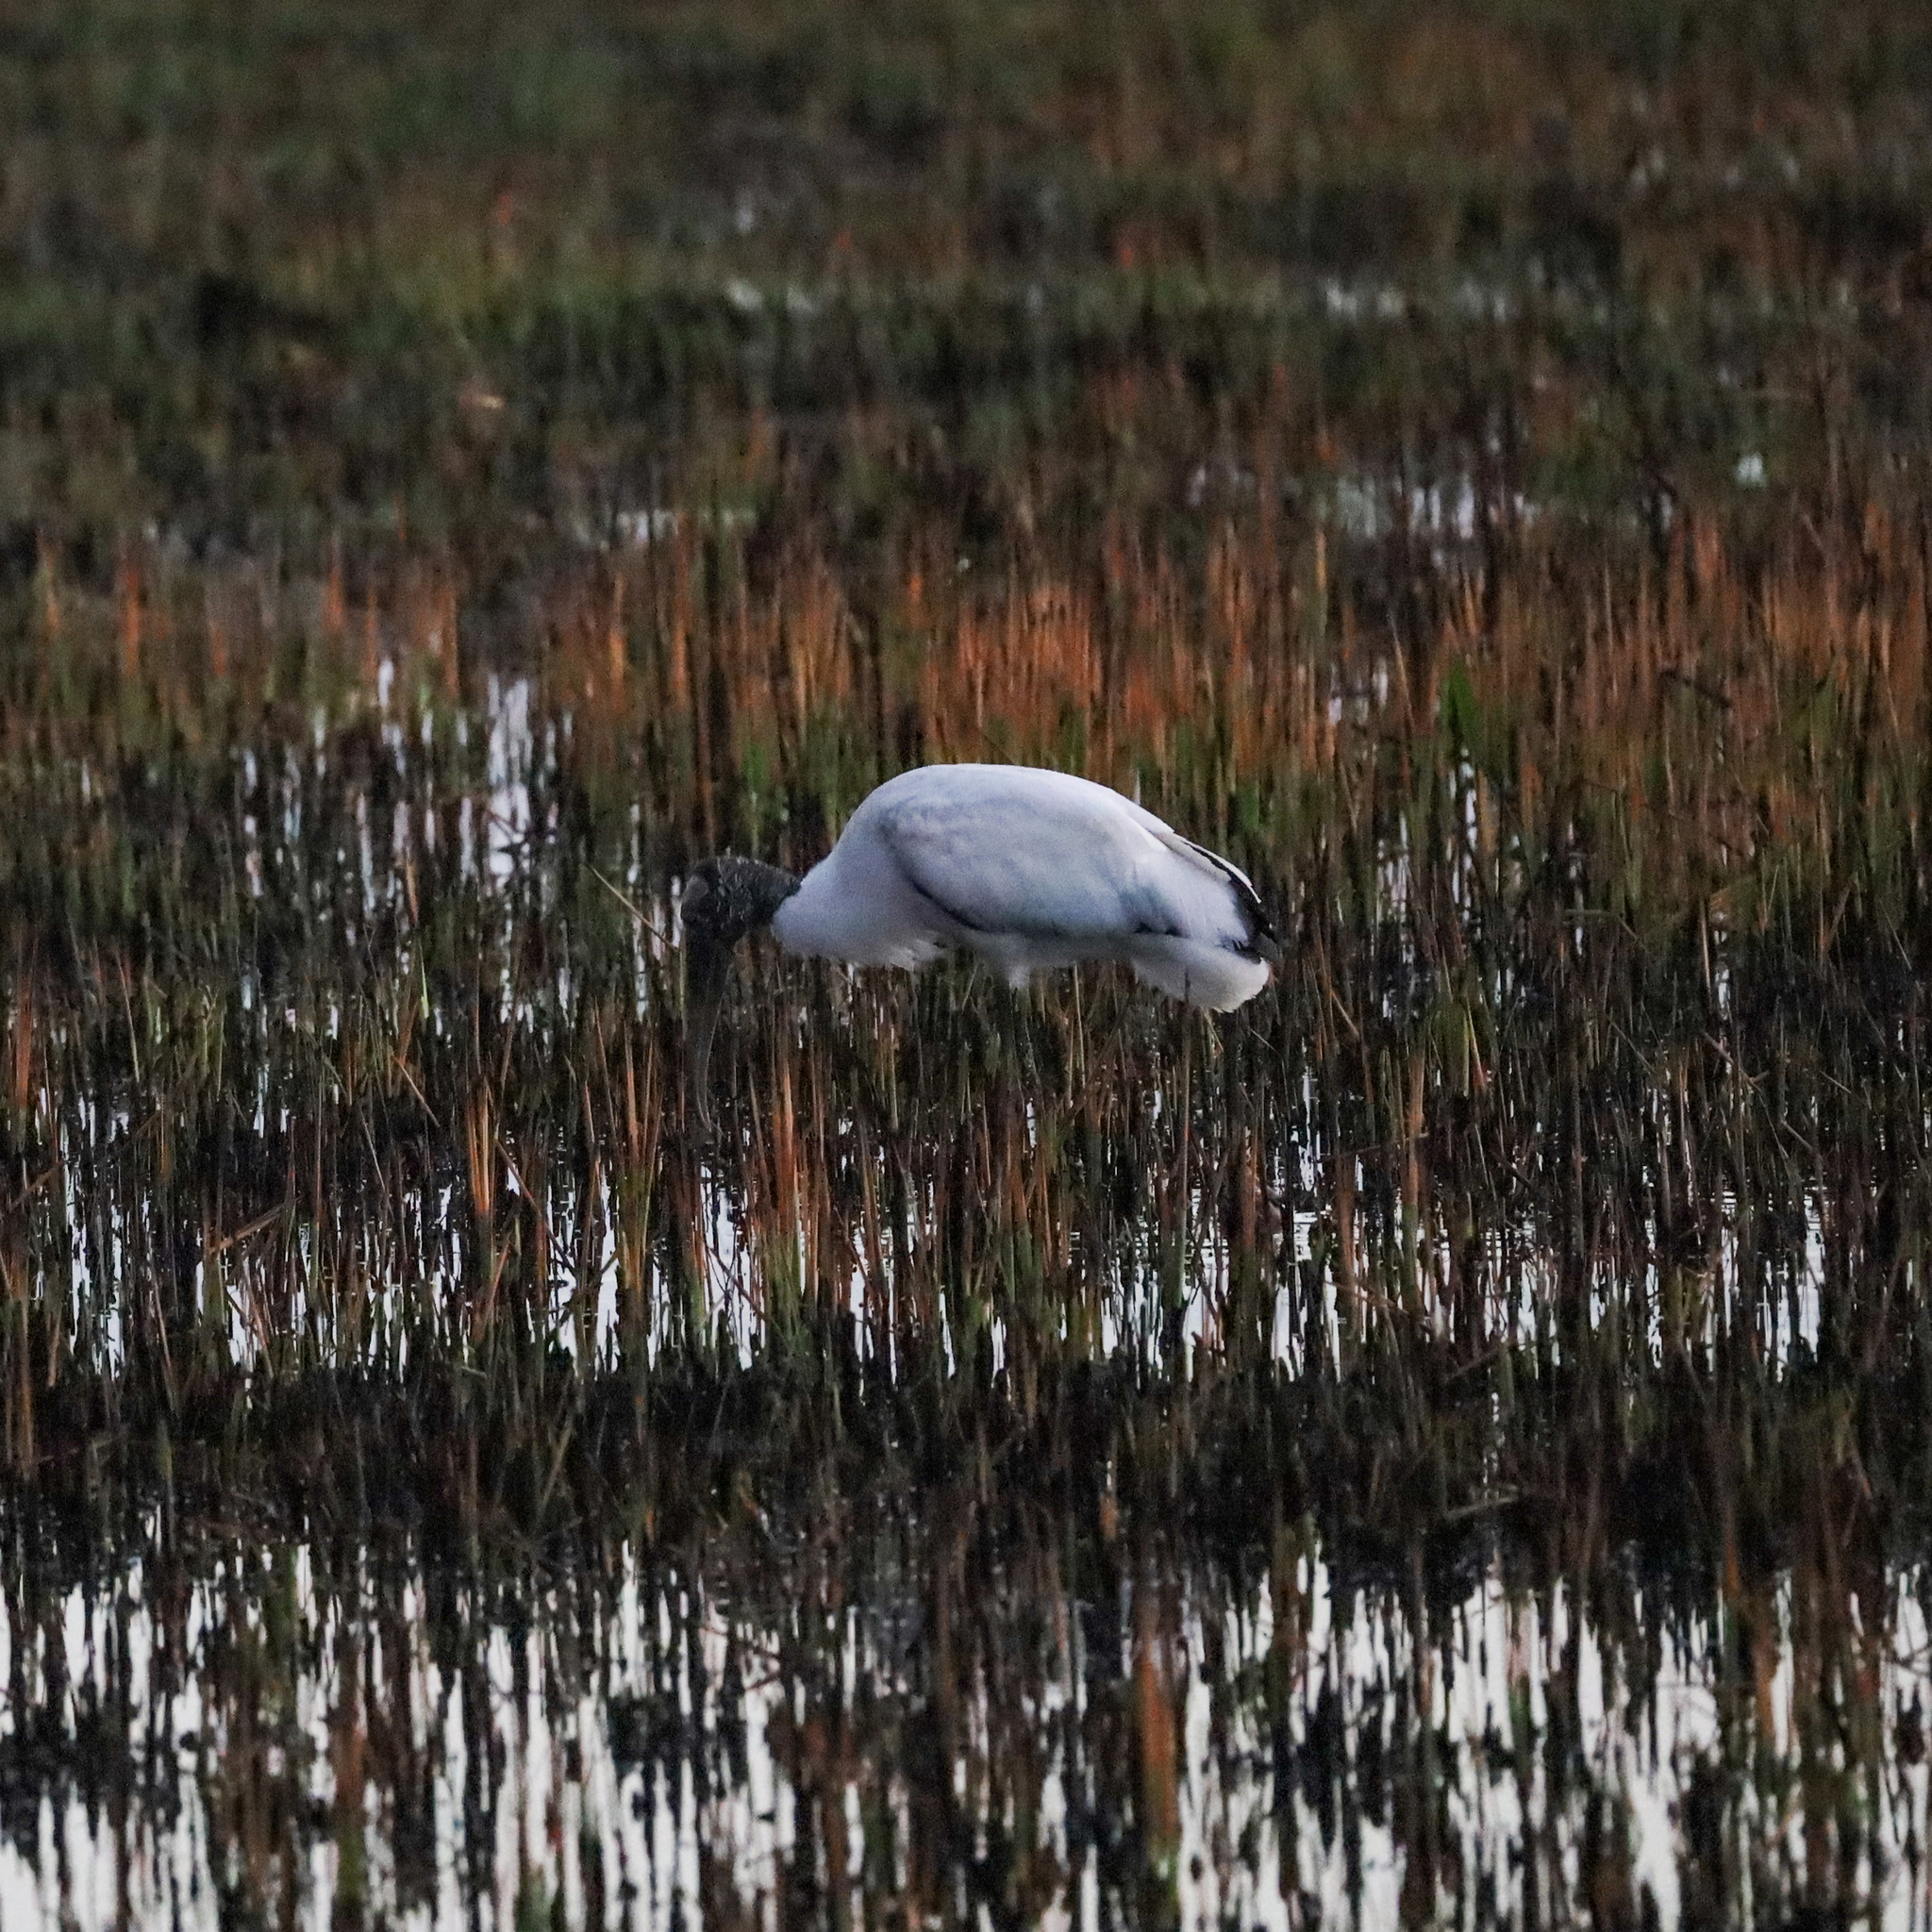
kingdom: Animalia
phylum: Chordata
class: Aves
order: Ciconiiformes
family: Ciconiidae
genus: Mycteria
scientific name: Mycteria americana
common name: Wood stork
